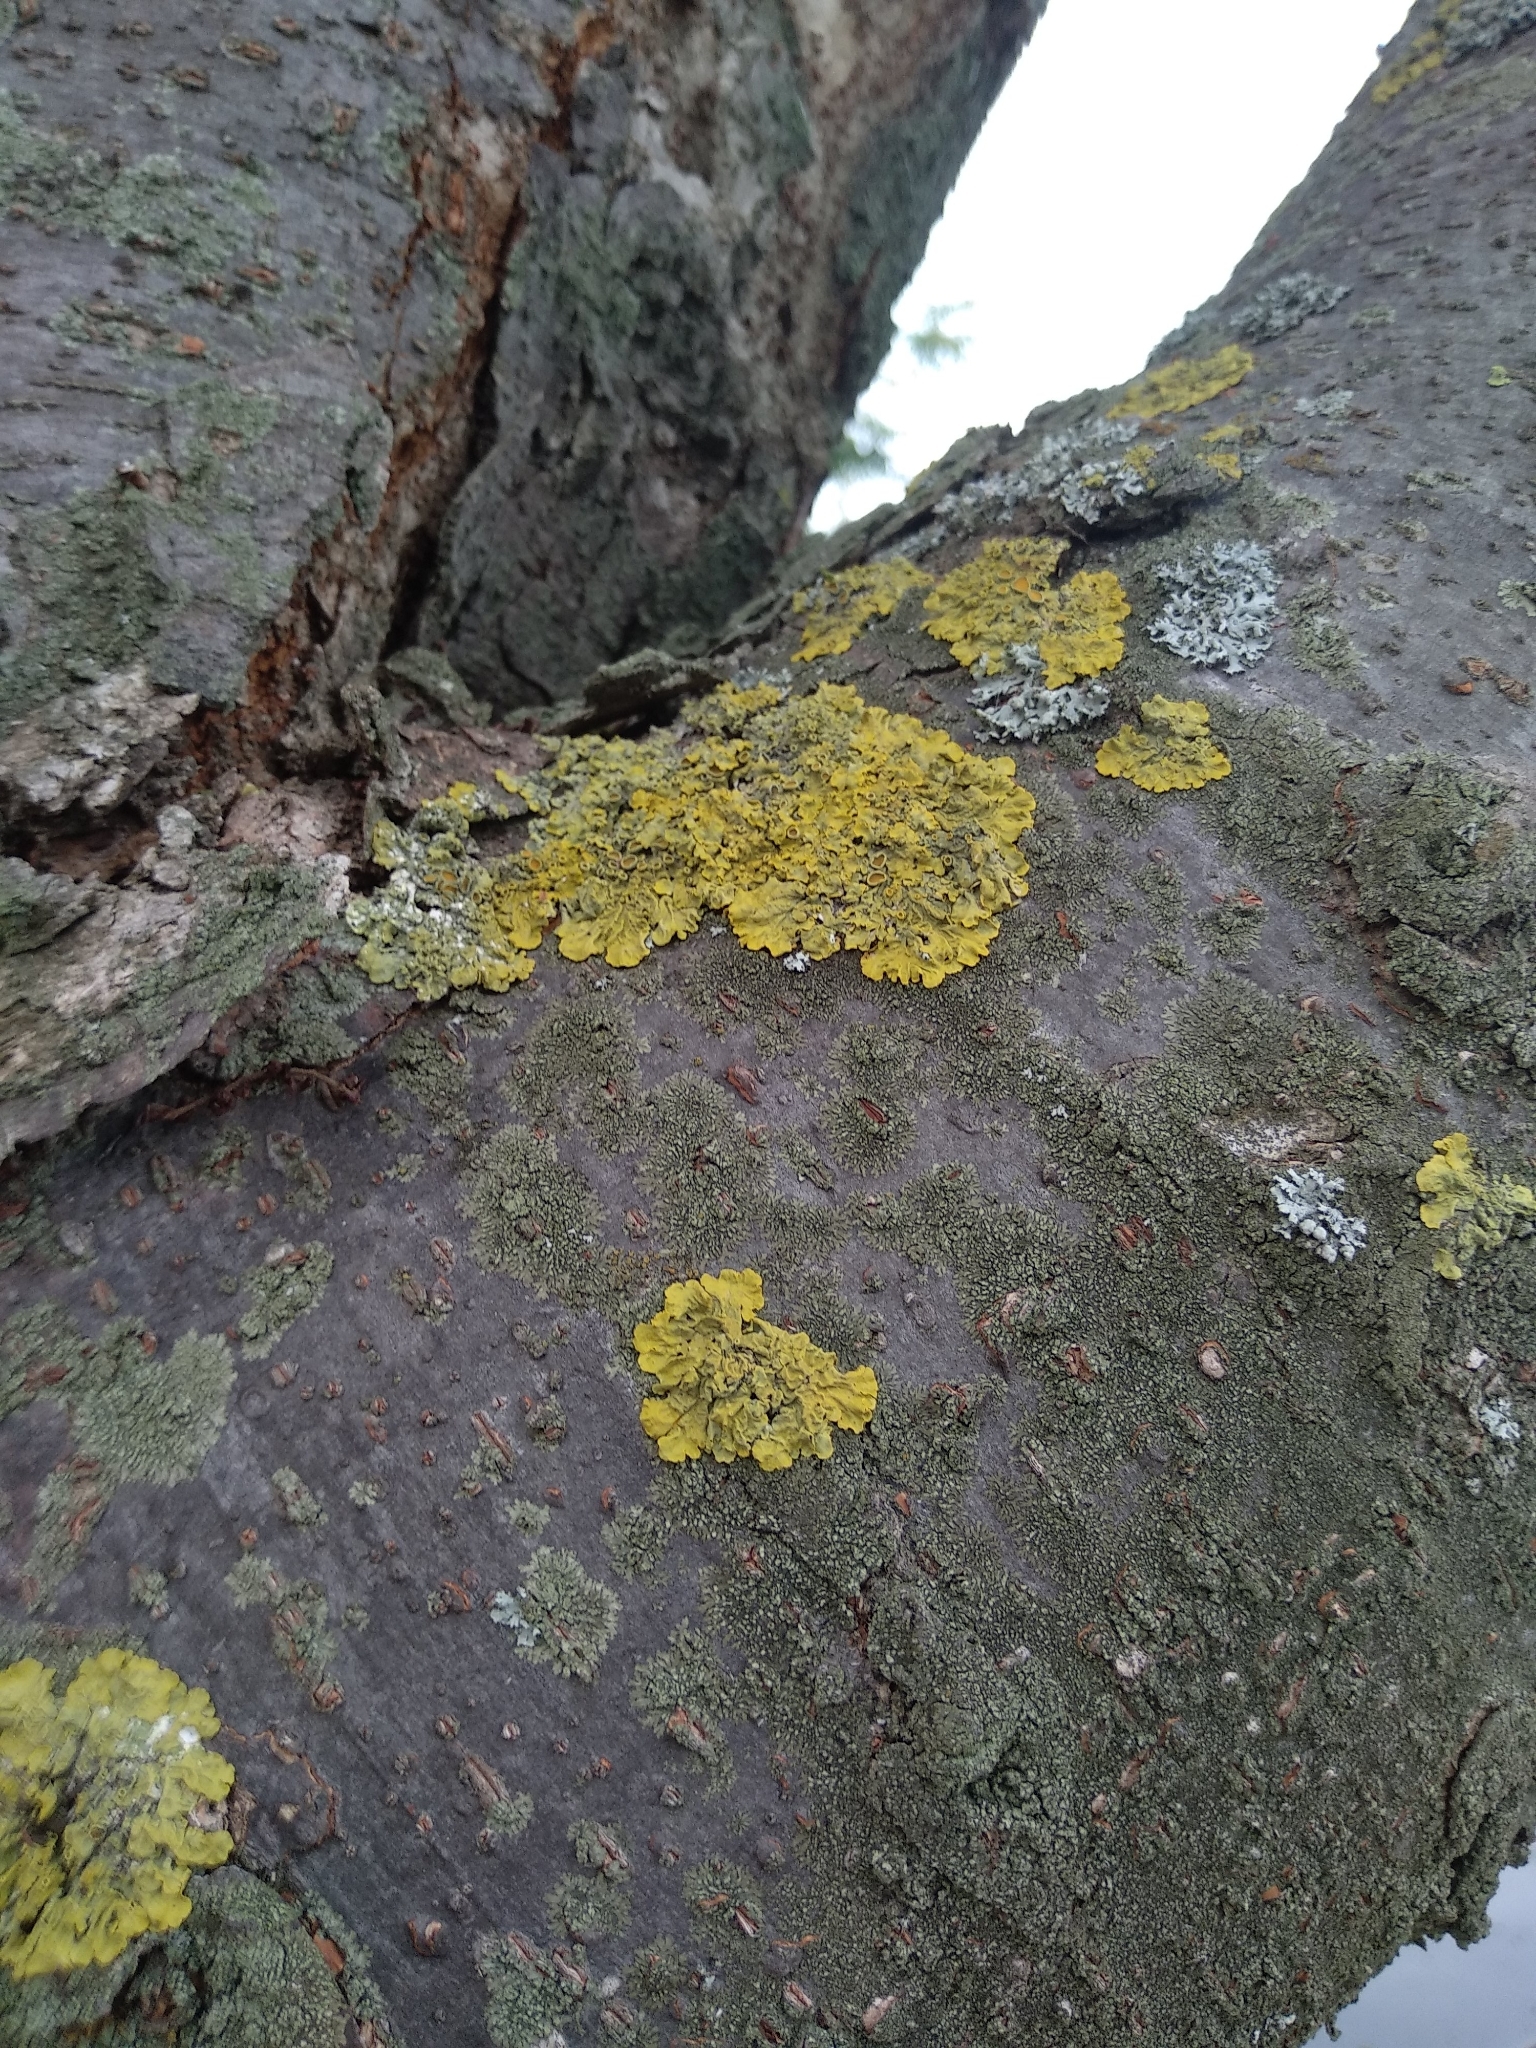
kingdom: Fungi
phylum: Ascomycota
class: Lecanoromycetes
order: Teloschistales
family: Teloschistaceae
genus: Xanthoria
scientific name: Xanthoria parietina
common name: Common orange lichen
